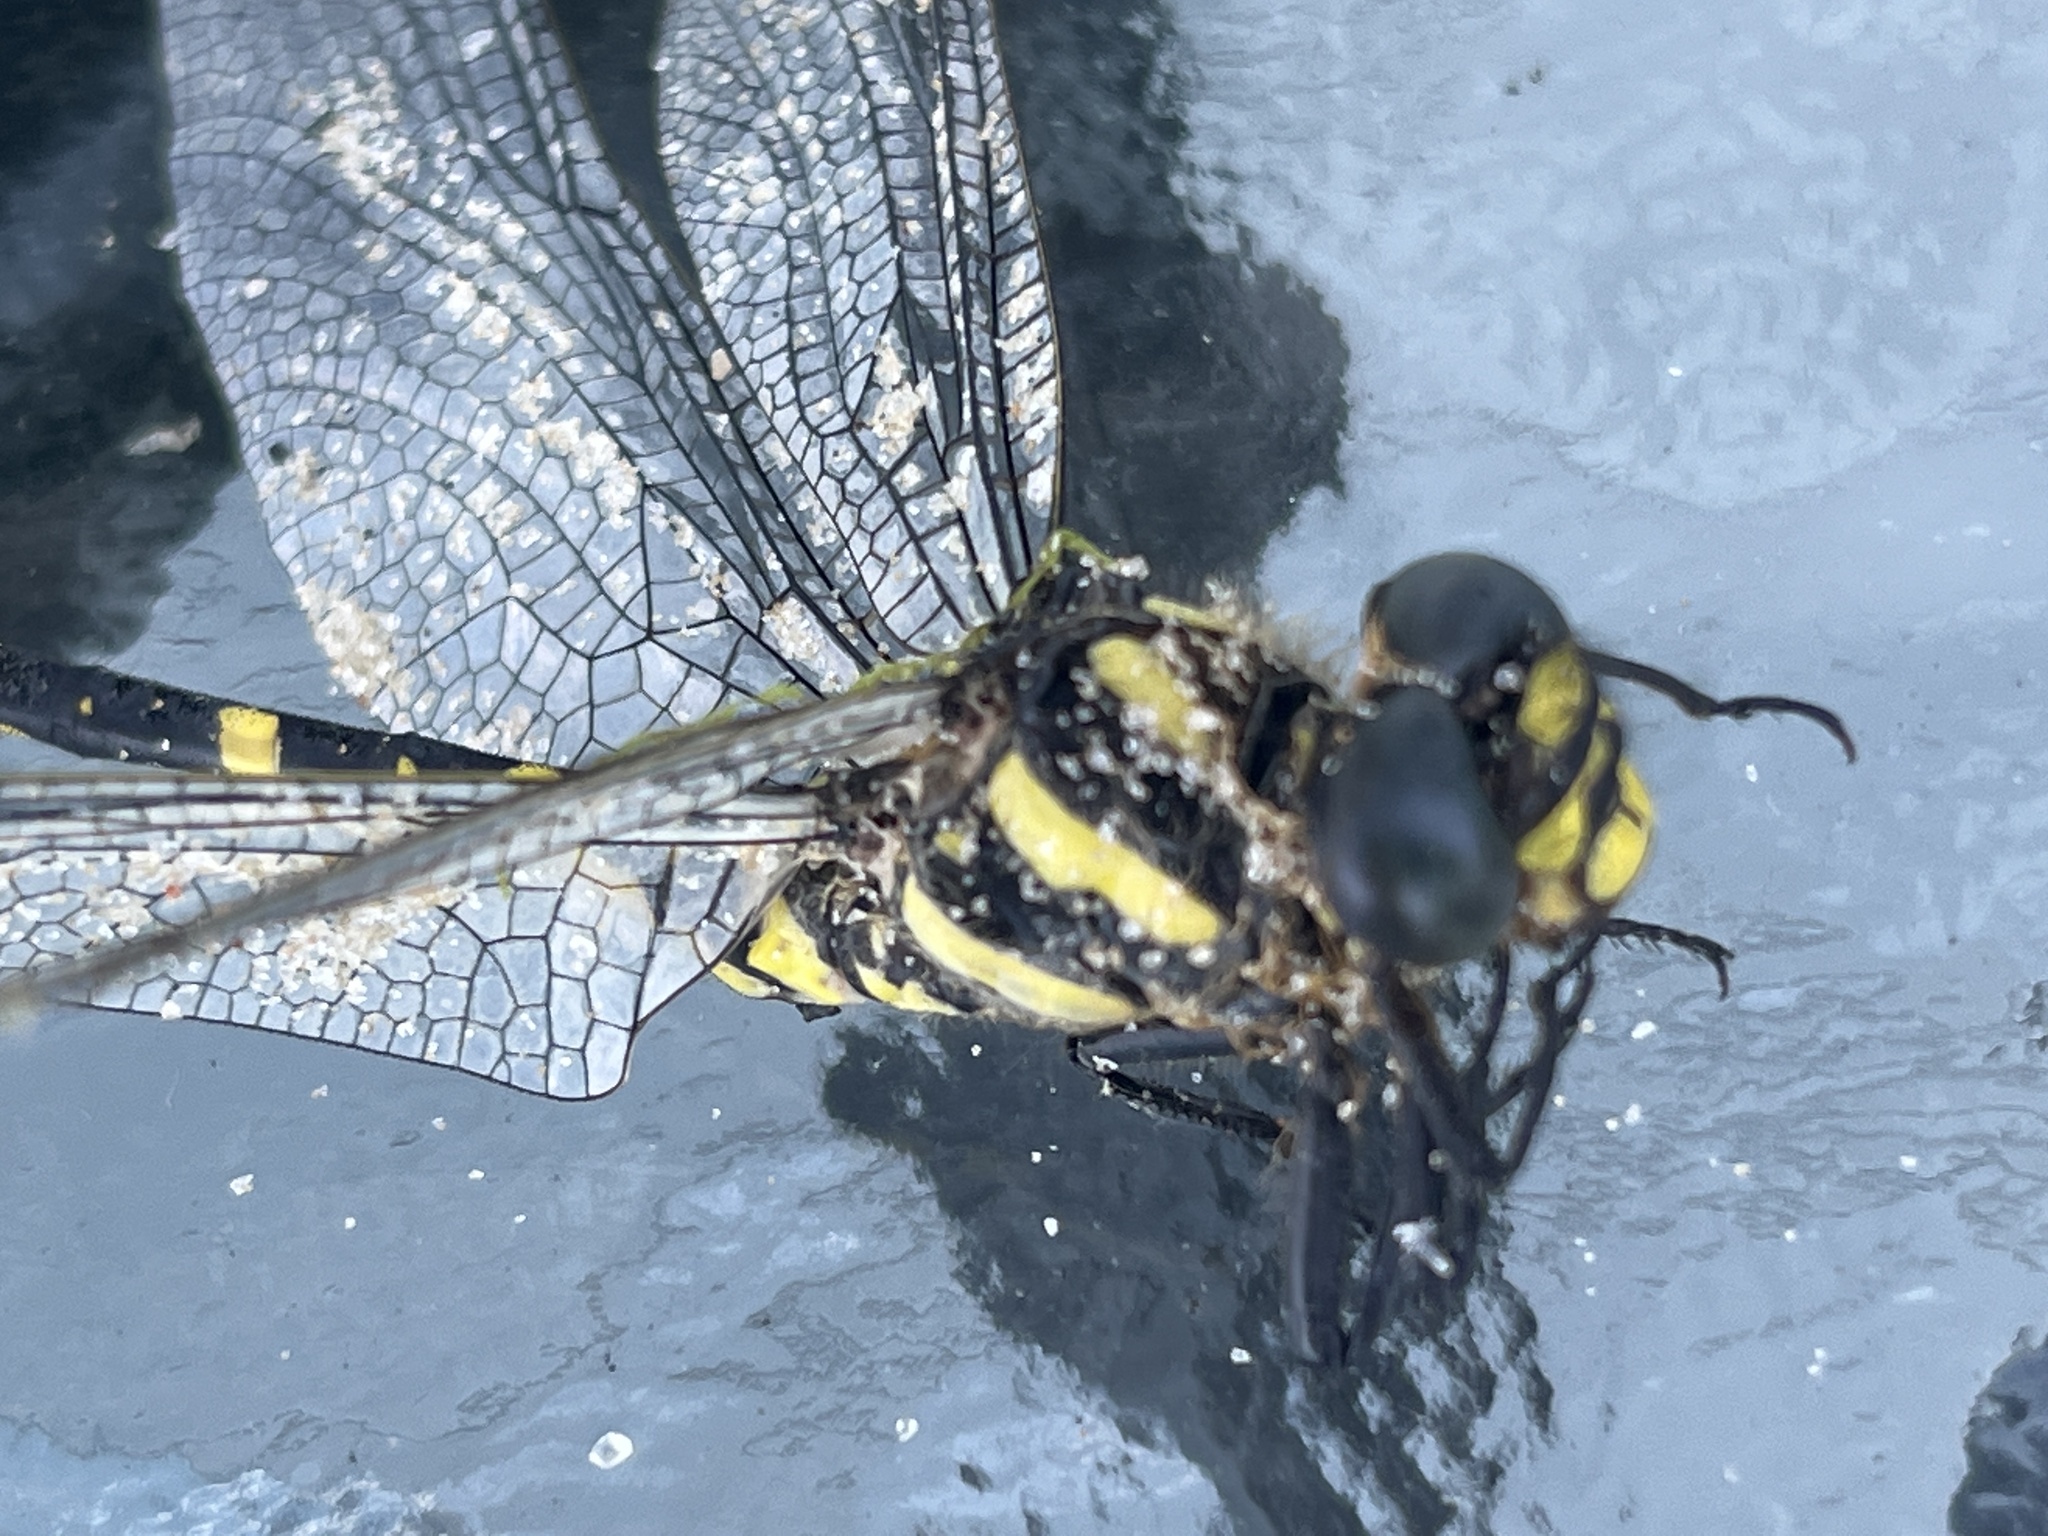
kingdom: Animalia
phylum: Arthropoda
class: Insecta
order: Odonata
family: Cordulegastridae
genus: Cordulegaster
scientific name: Cordulegaster erronea
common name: Tiger spiketail
